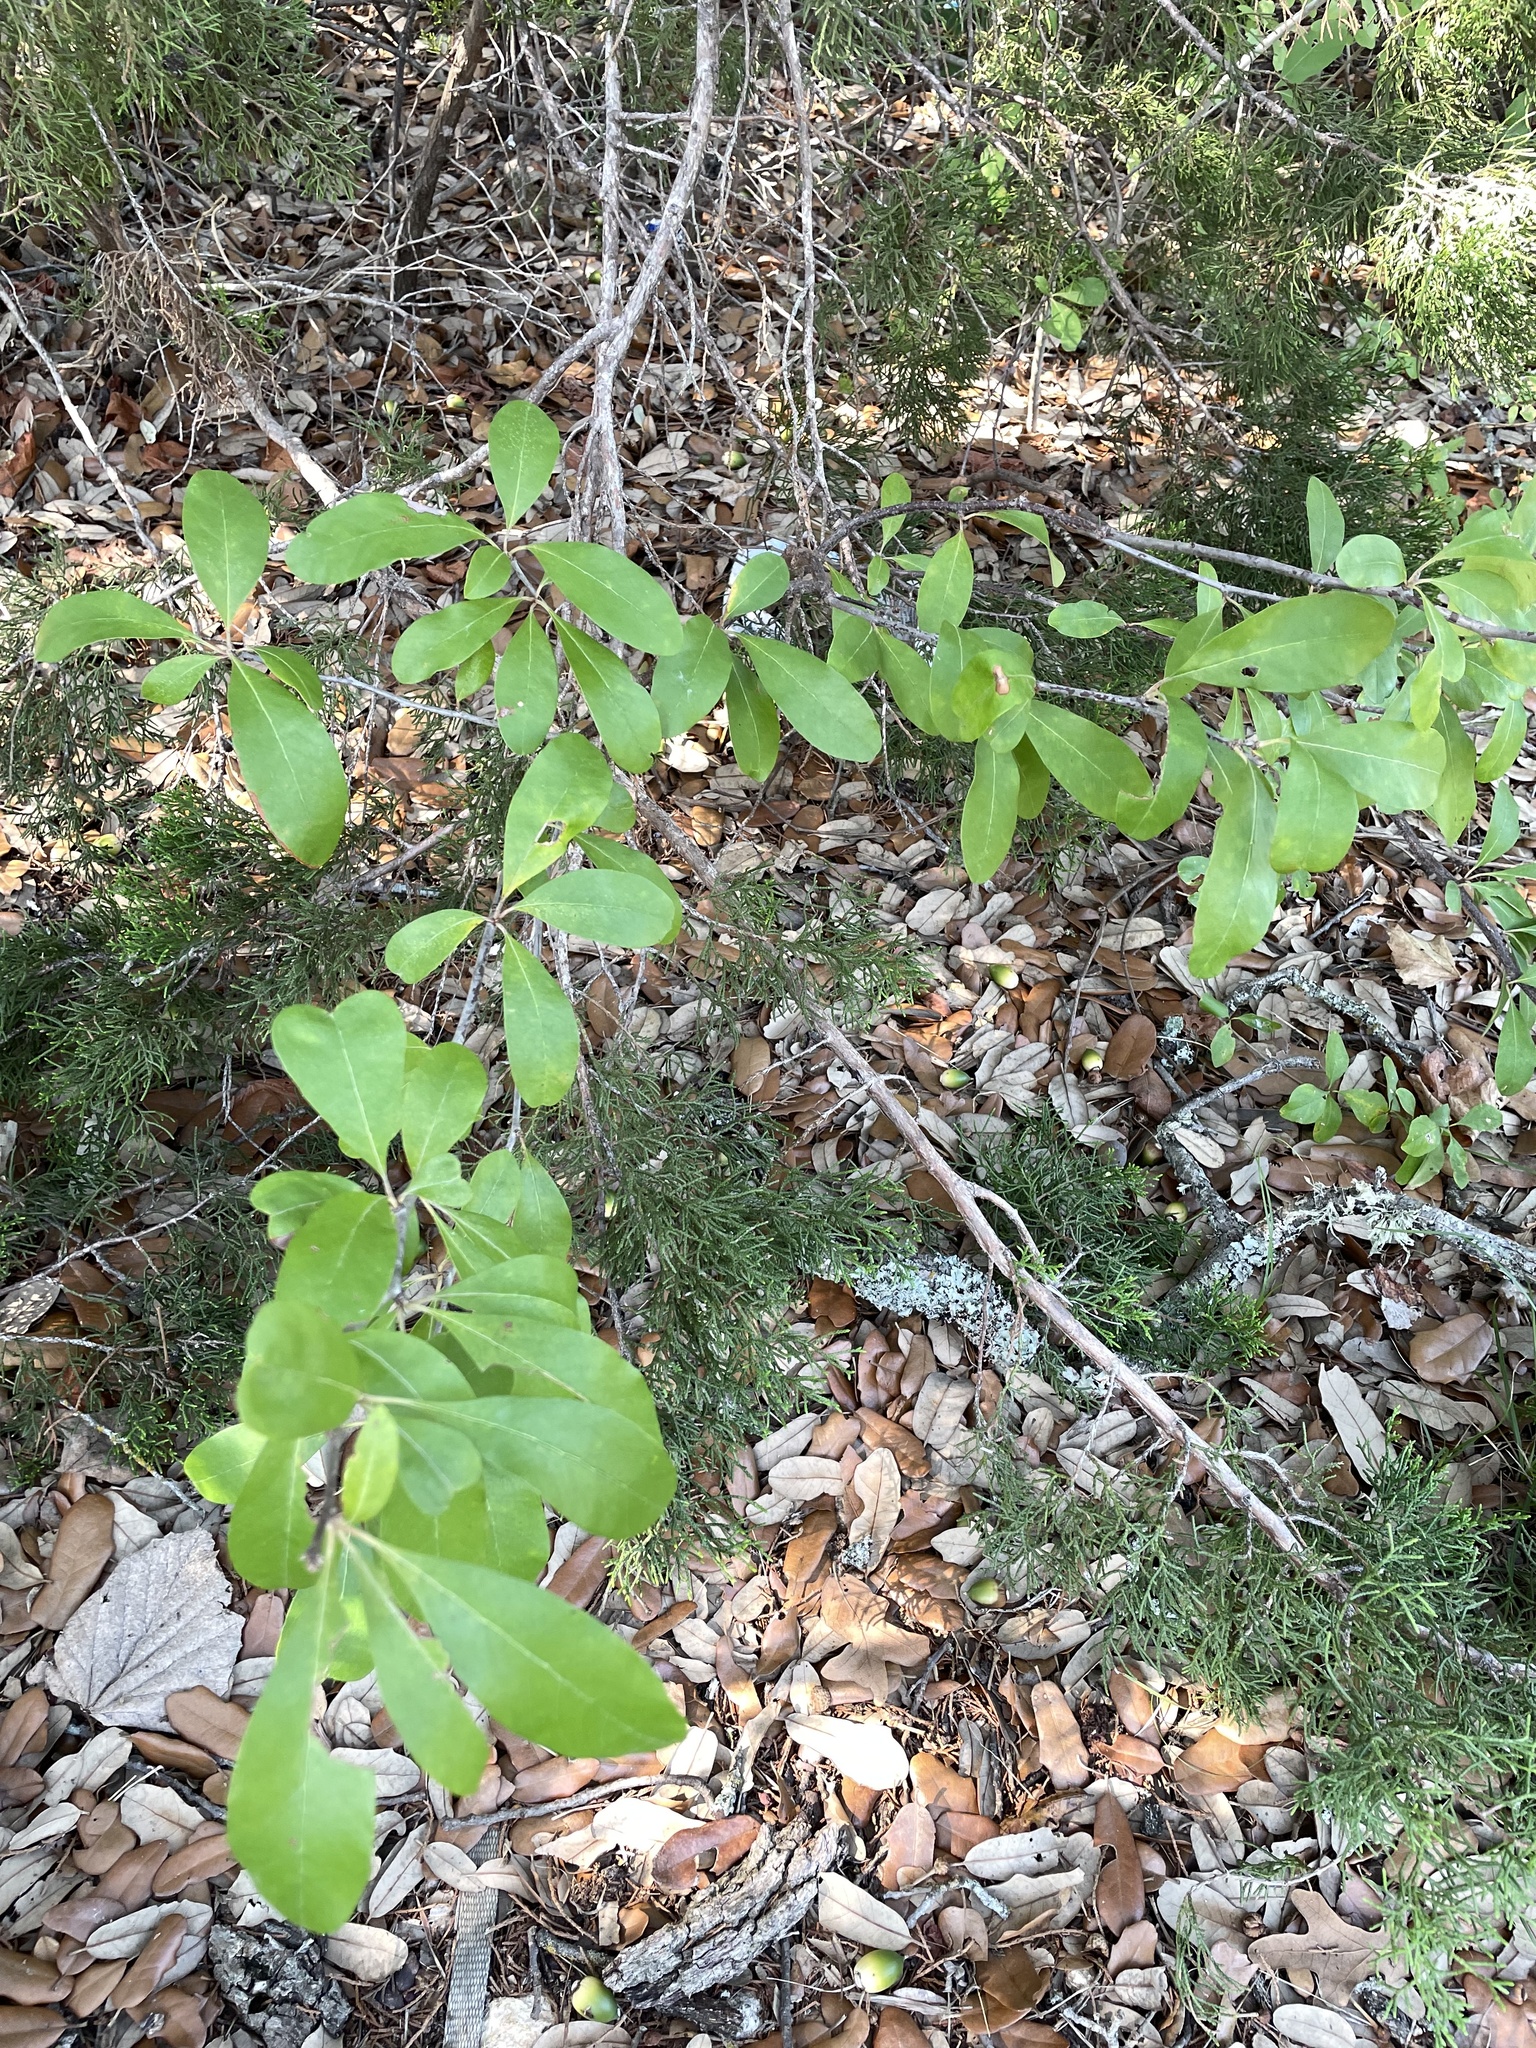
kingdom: Plantae
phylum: Tracheophyta
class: Magnoliopsida
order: Ericales
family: Sapotaceae
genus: Sideroxylon
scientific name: Sideroxylon lanuginosum
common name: Chittamwood
